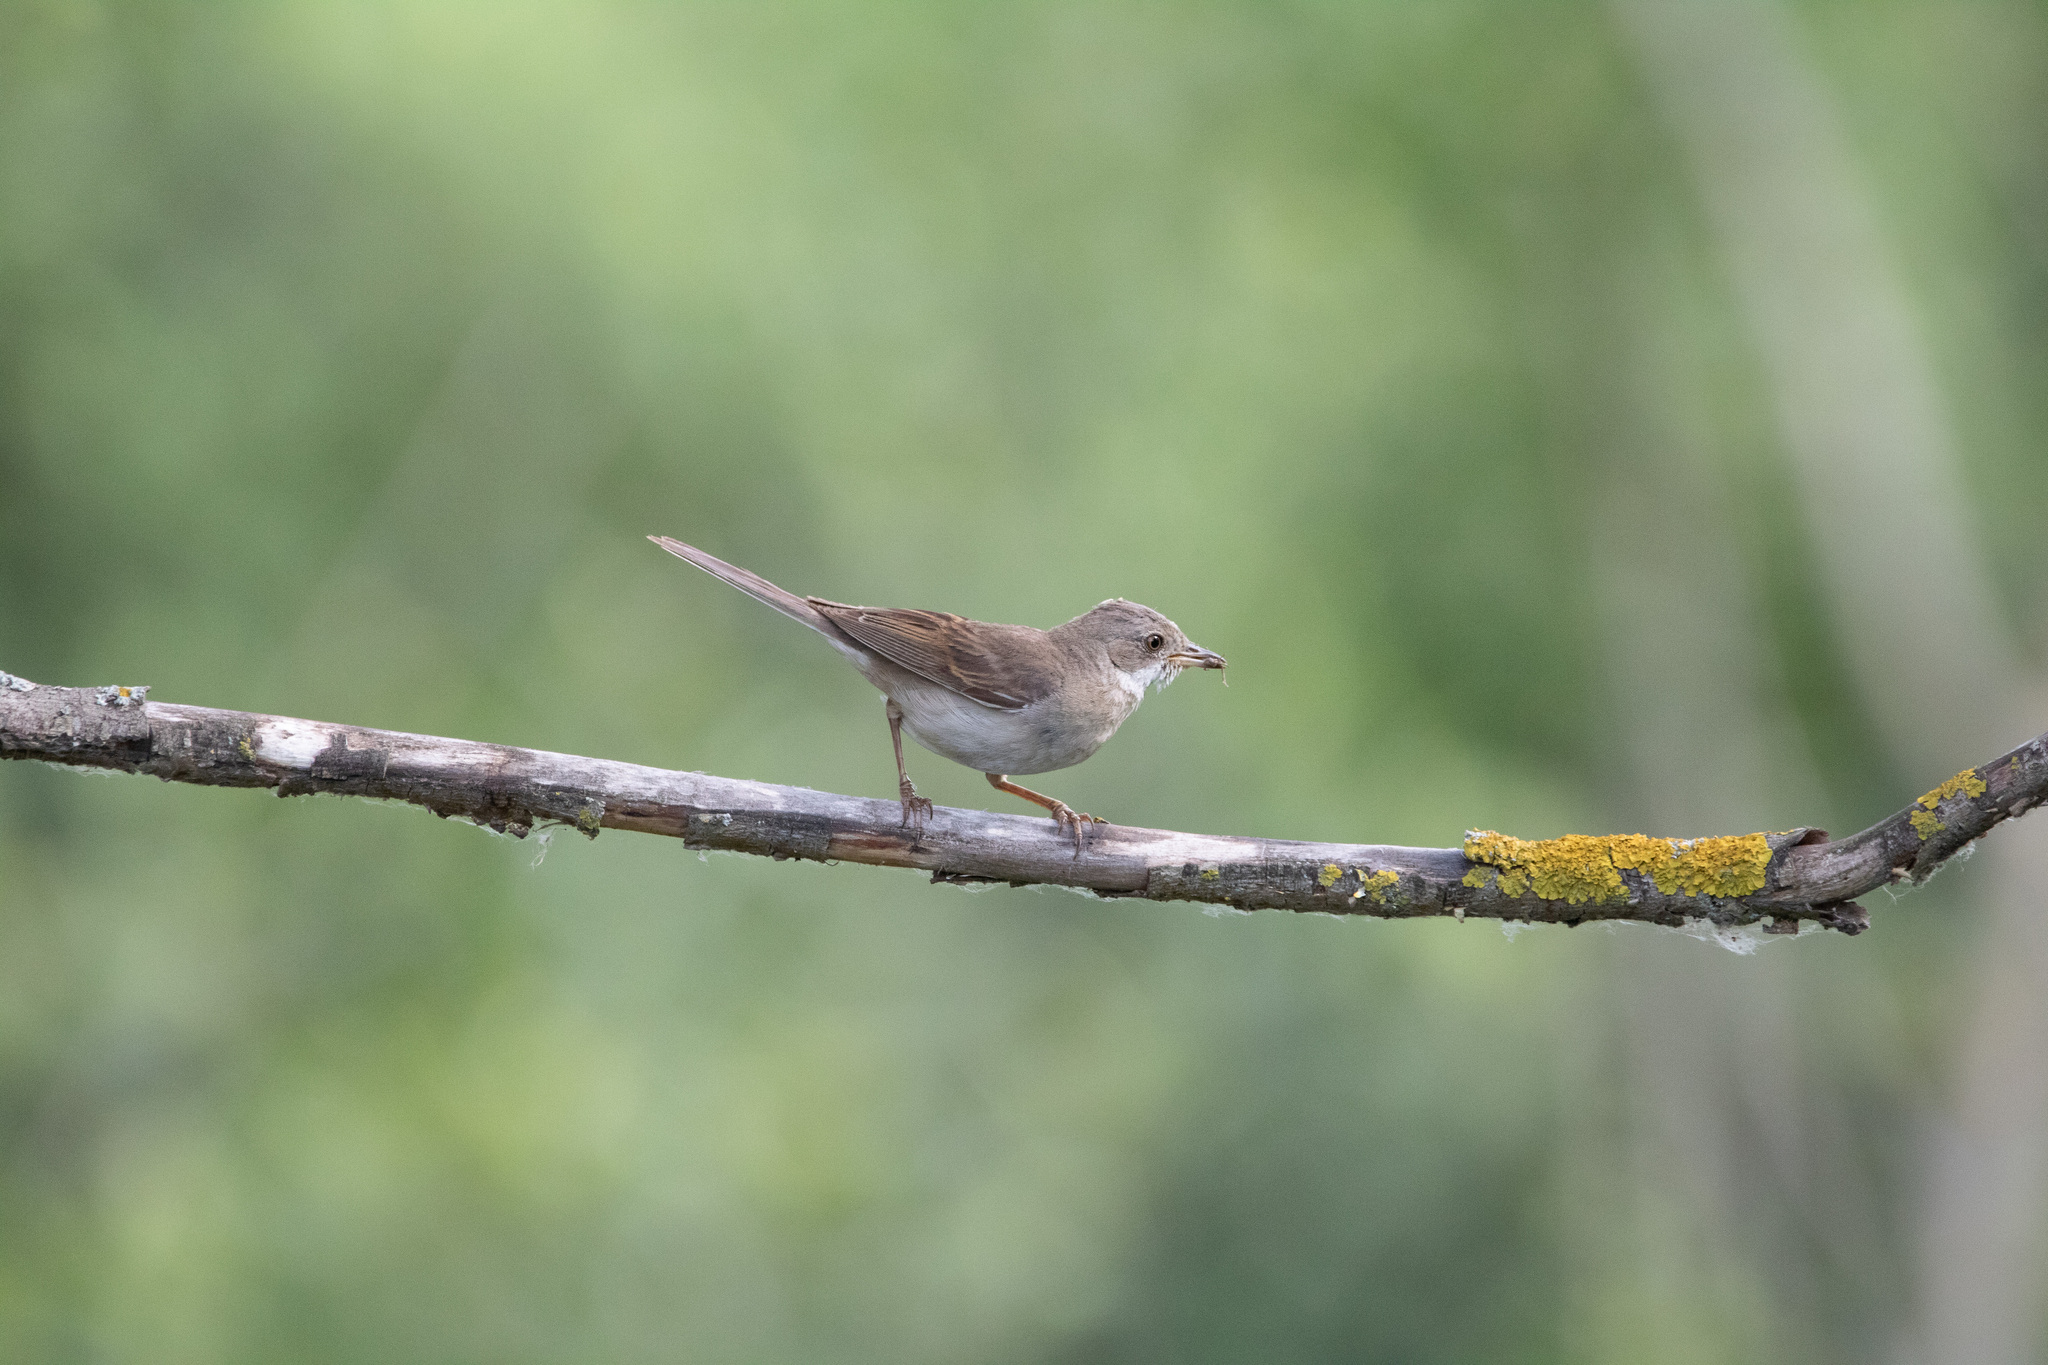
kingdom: Animalia
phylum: Chordata
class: Aves
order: Passeriformes
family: Sylviidae
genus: Sylvia
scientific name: Sylvia communis
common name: Common whitethroat
